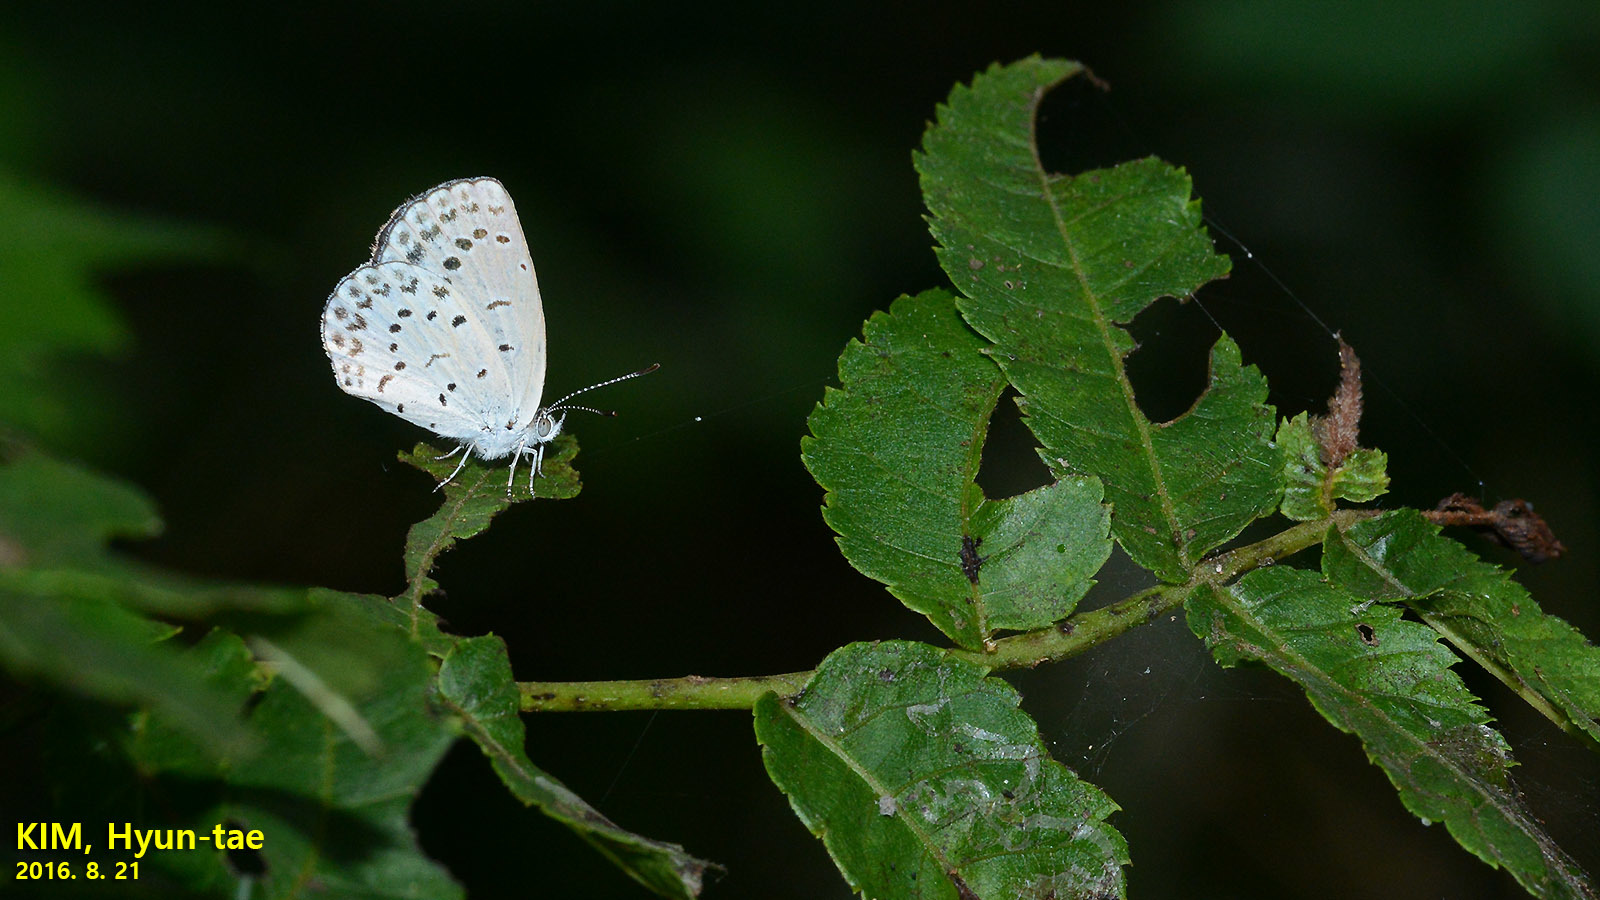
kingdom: Animalia
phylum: Arthropoda
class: Insecta
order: Lepidoptera
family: Lycaenidae
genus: Pseudozizeeria
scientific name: Pseudozizeeria maha
